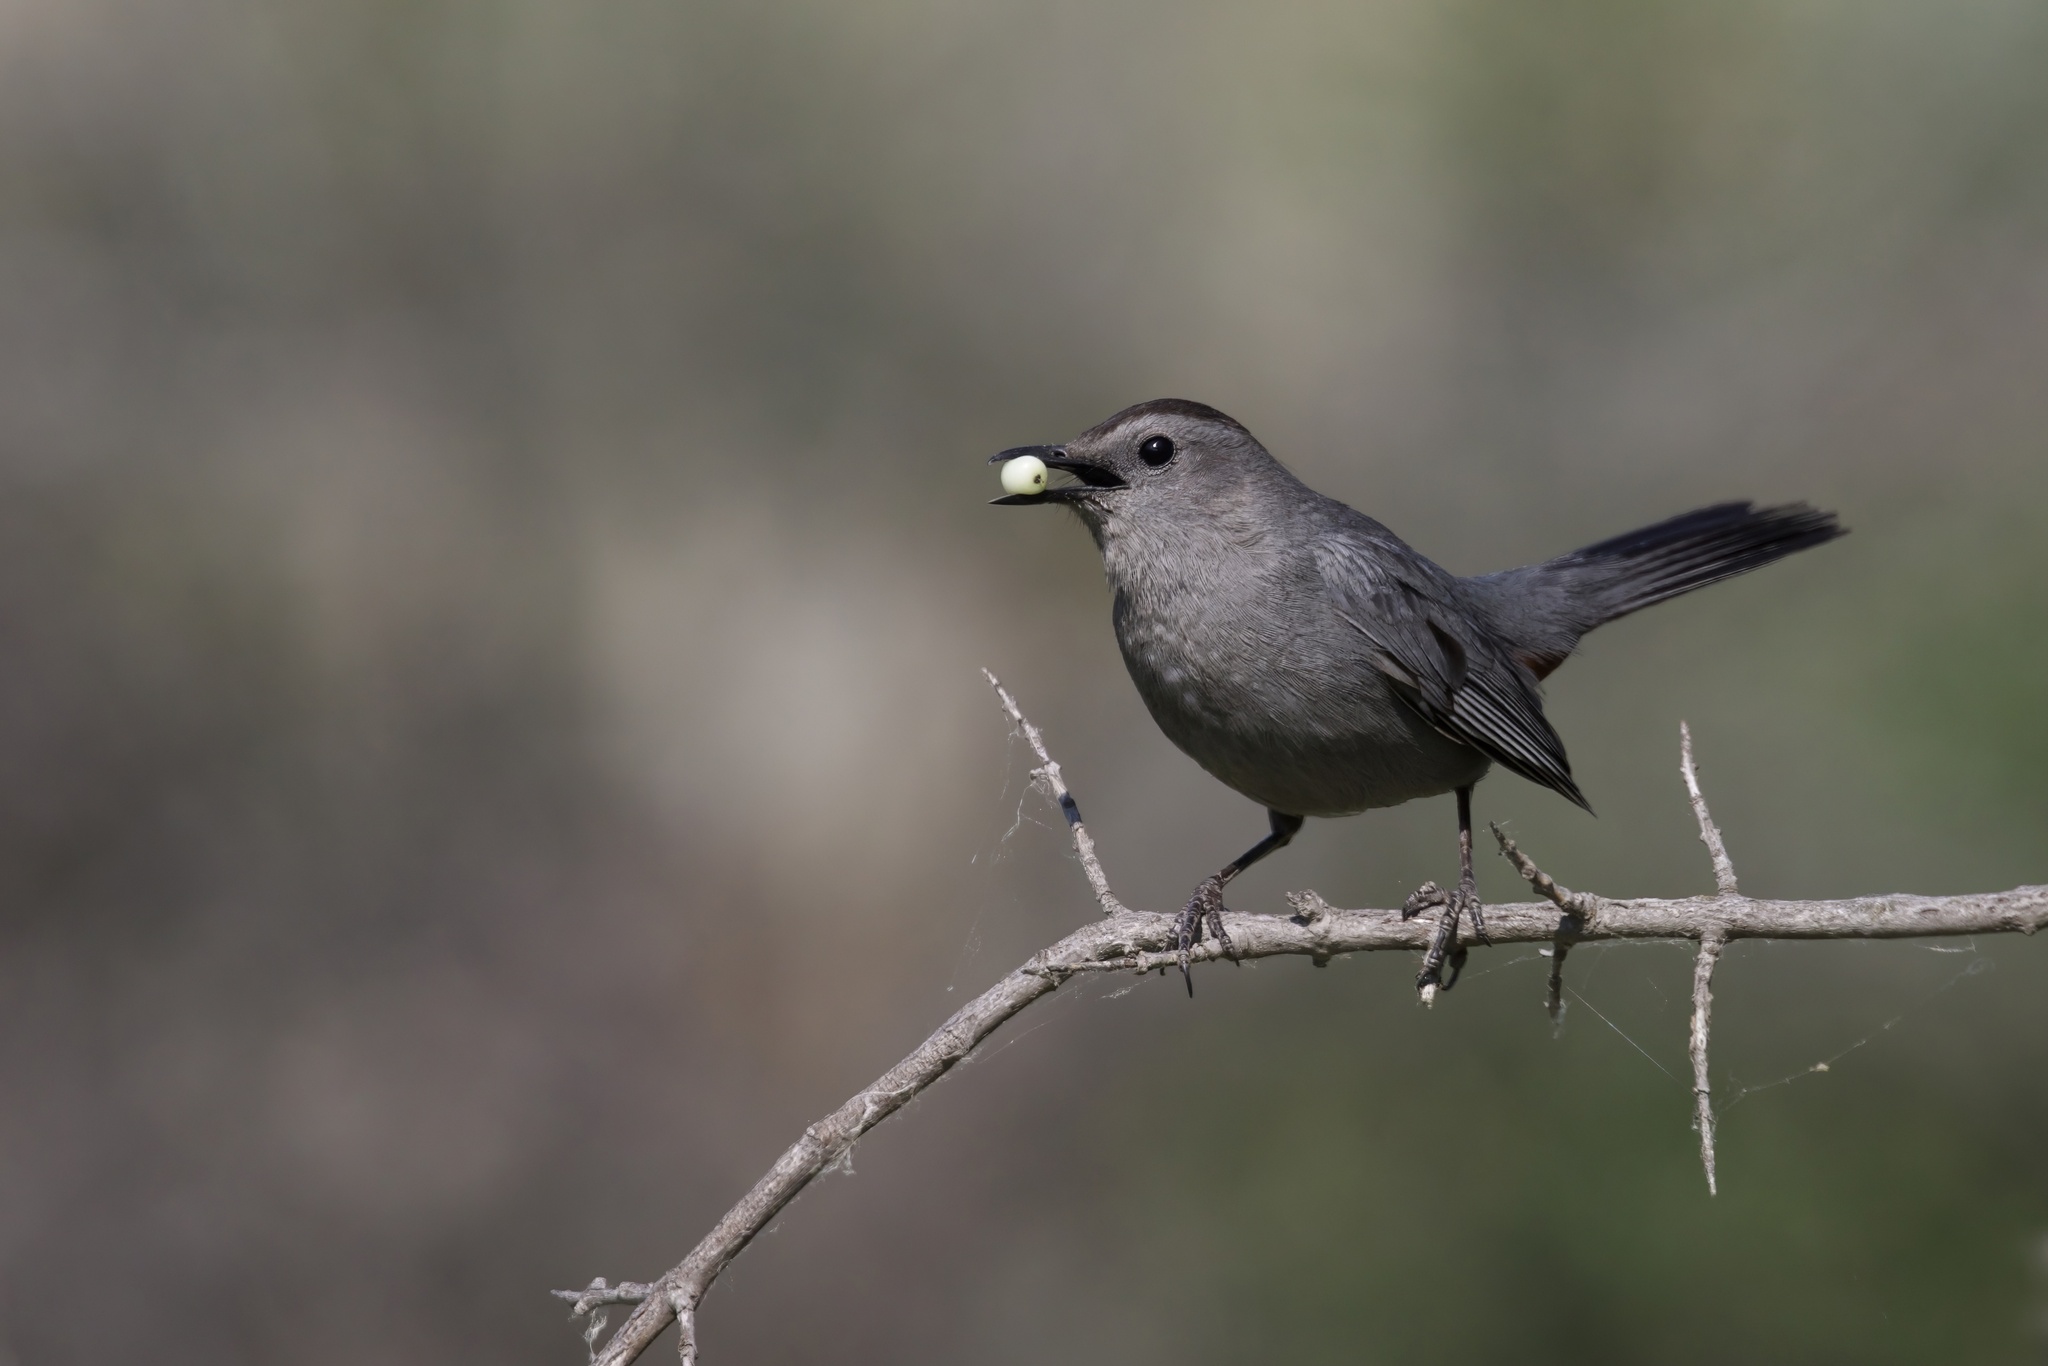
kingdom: Animalia
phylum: Chordata
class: Aves
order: Passeriformes
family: Mimidae
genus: Dumetella
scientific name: Dumetella carolinensis
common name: Gray catbird
